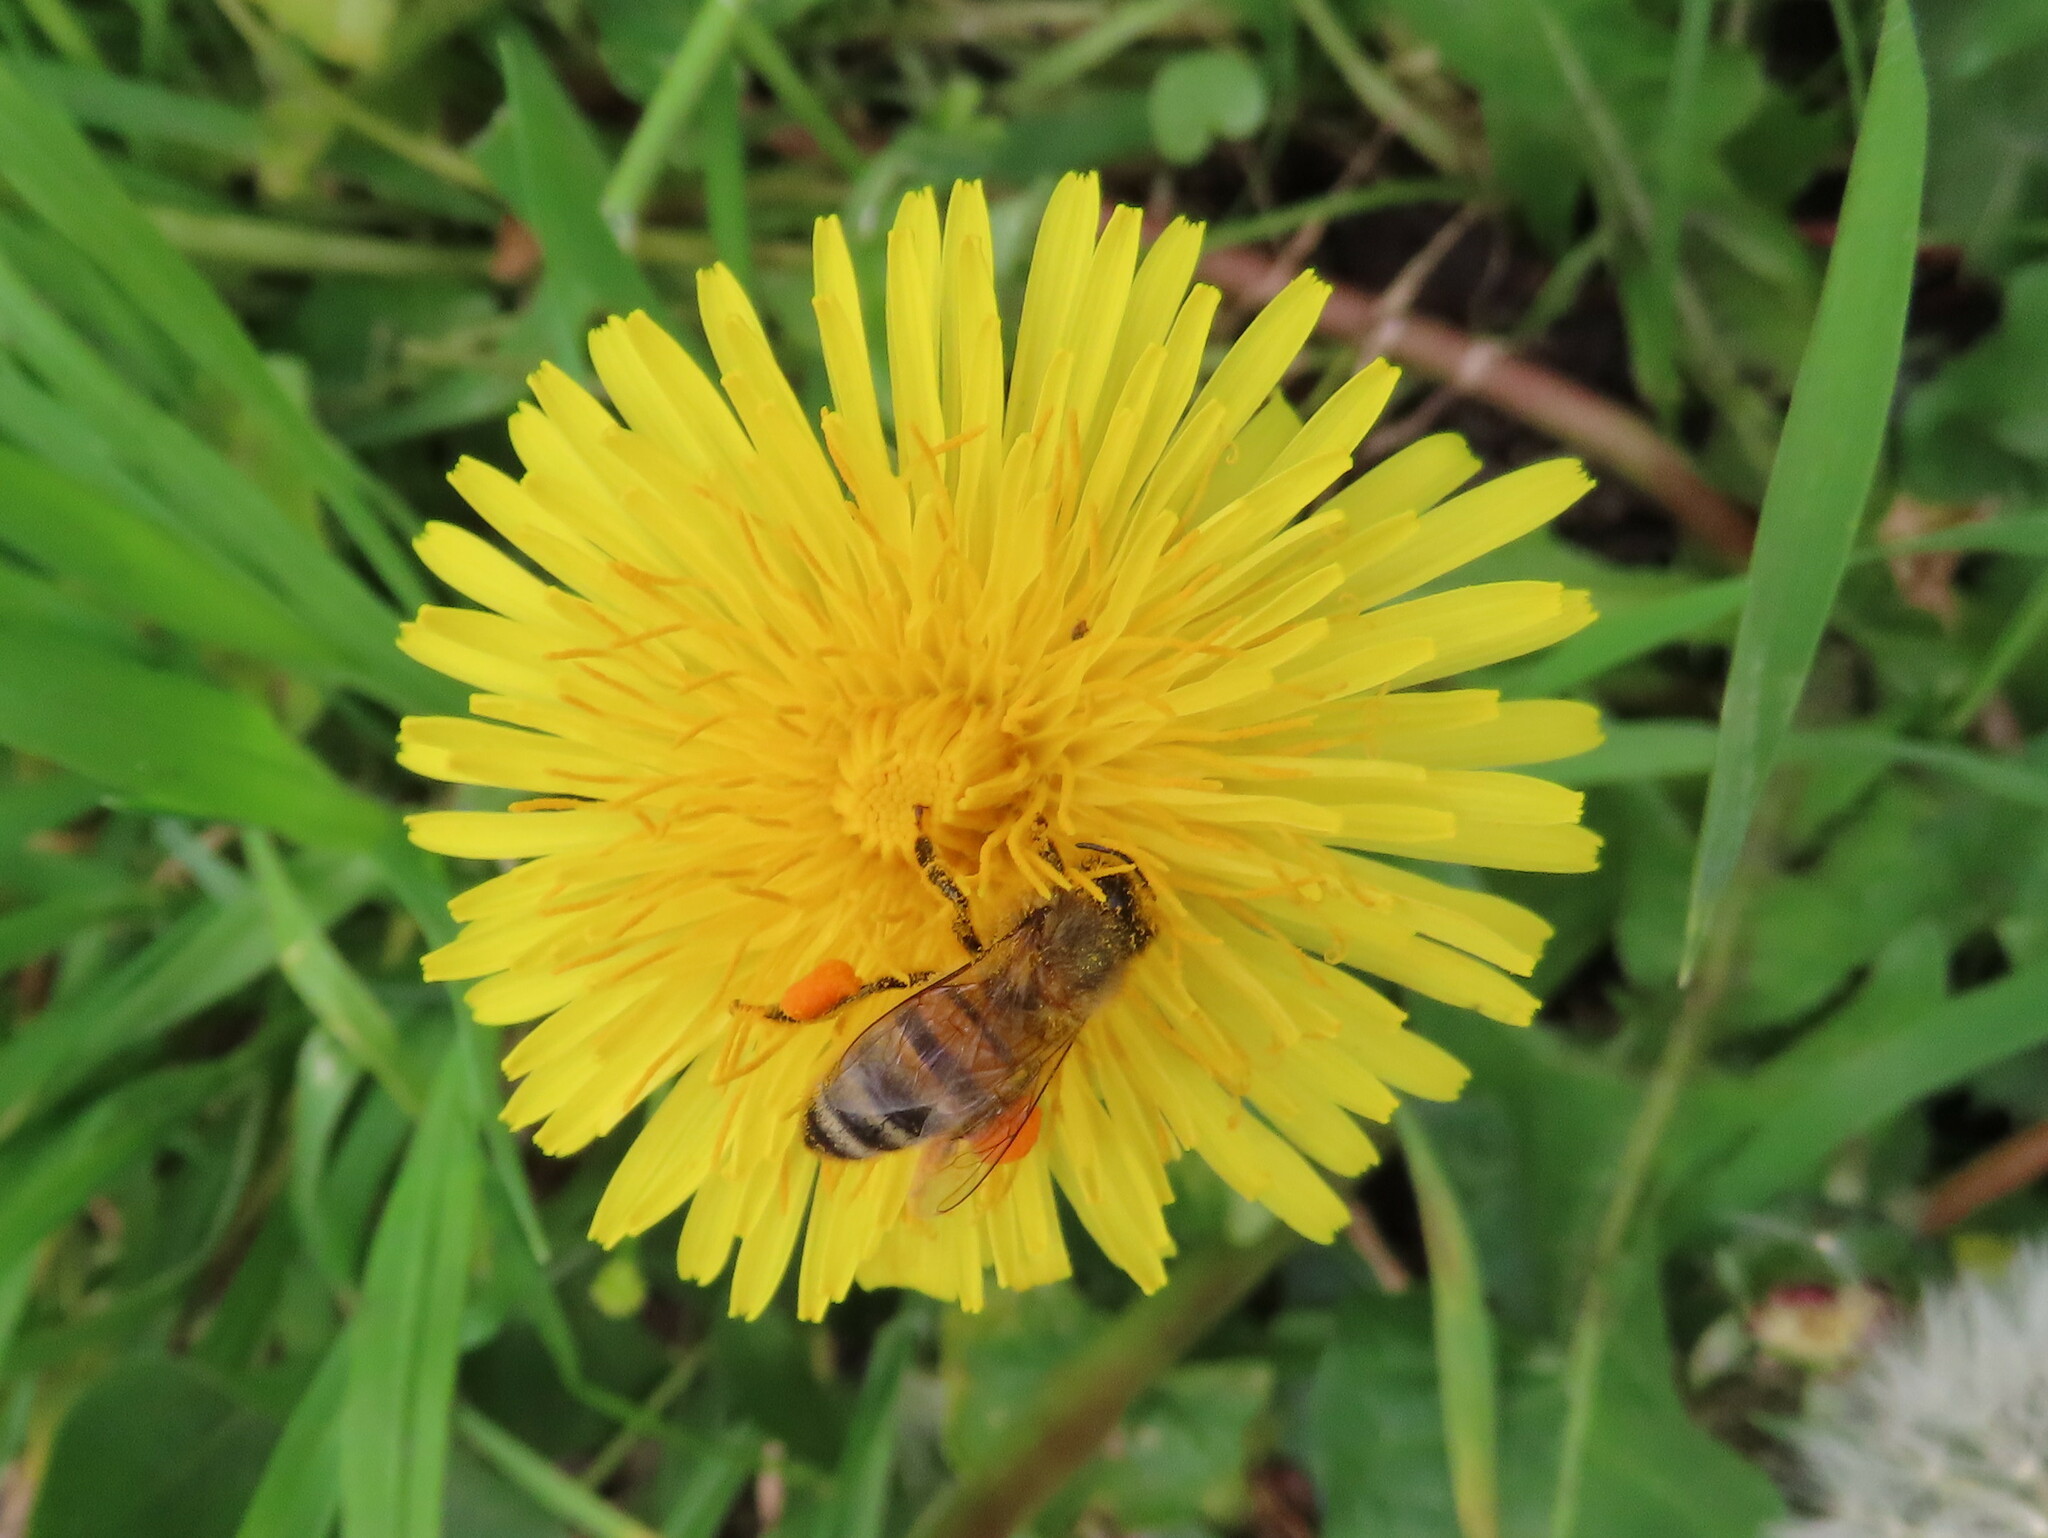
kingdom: Animalia
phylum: Arthropoda
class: Insecta
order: Hymenoptera
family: Apidae
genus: Apis
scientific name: Apis mellifera
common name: Honey bee
